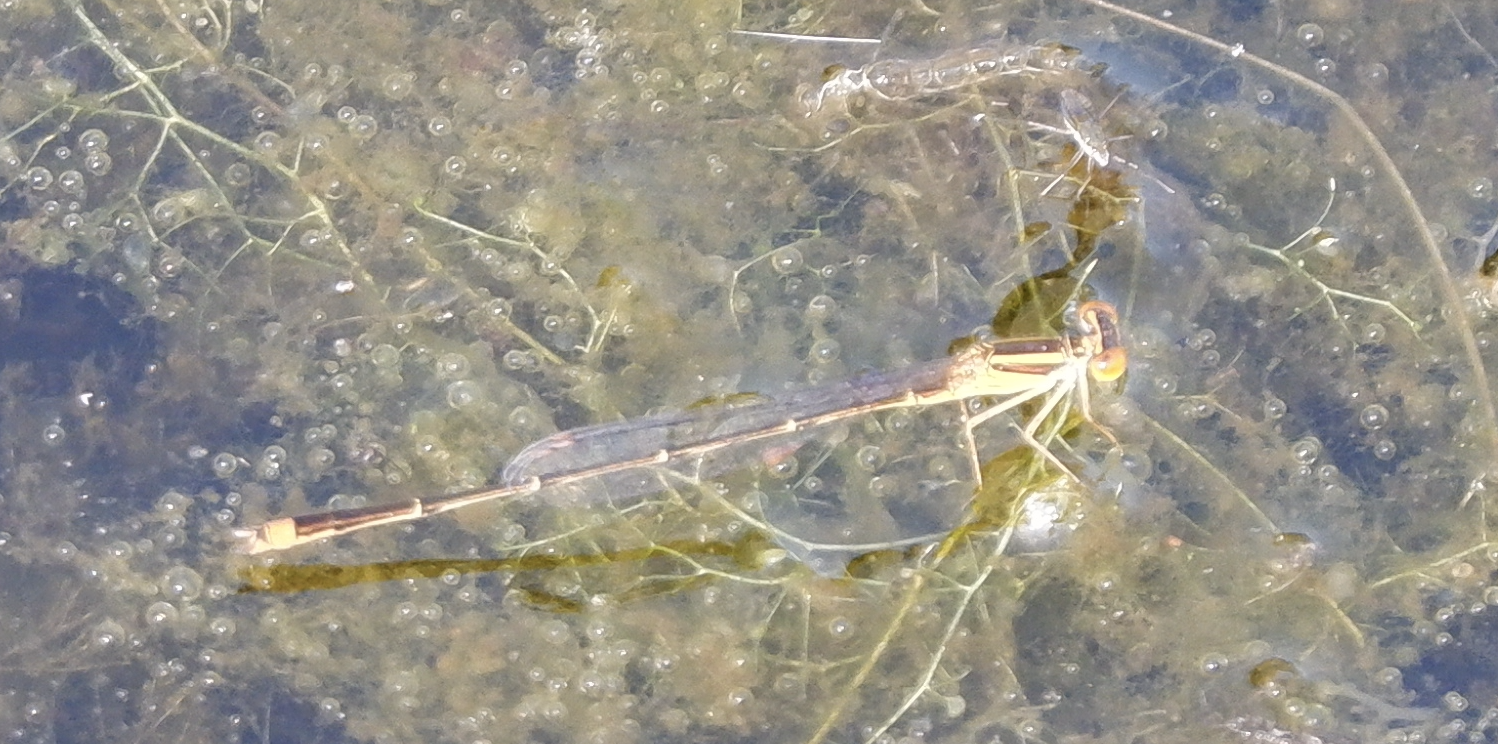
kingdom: Animalia
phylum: Arthropoda
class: Insecta
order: Odonata
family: Coenagrionidae
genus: Enallagma
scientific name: Enallagma signatum
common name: Orange bluet
